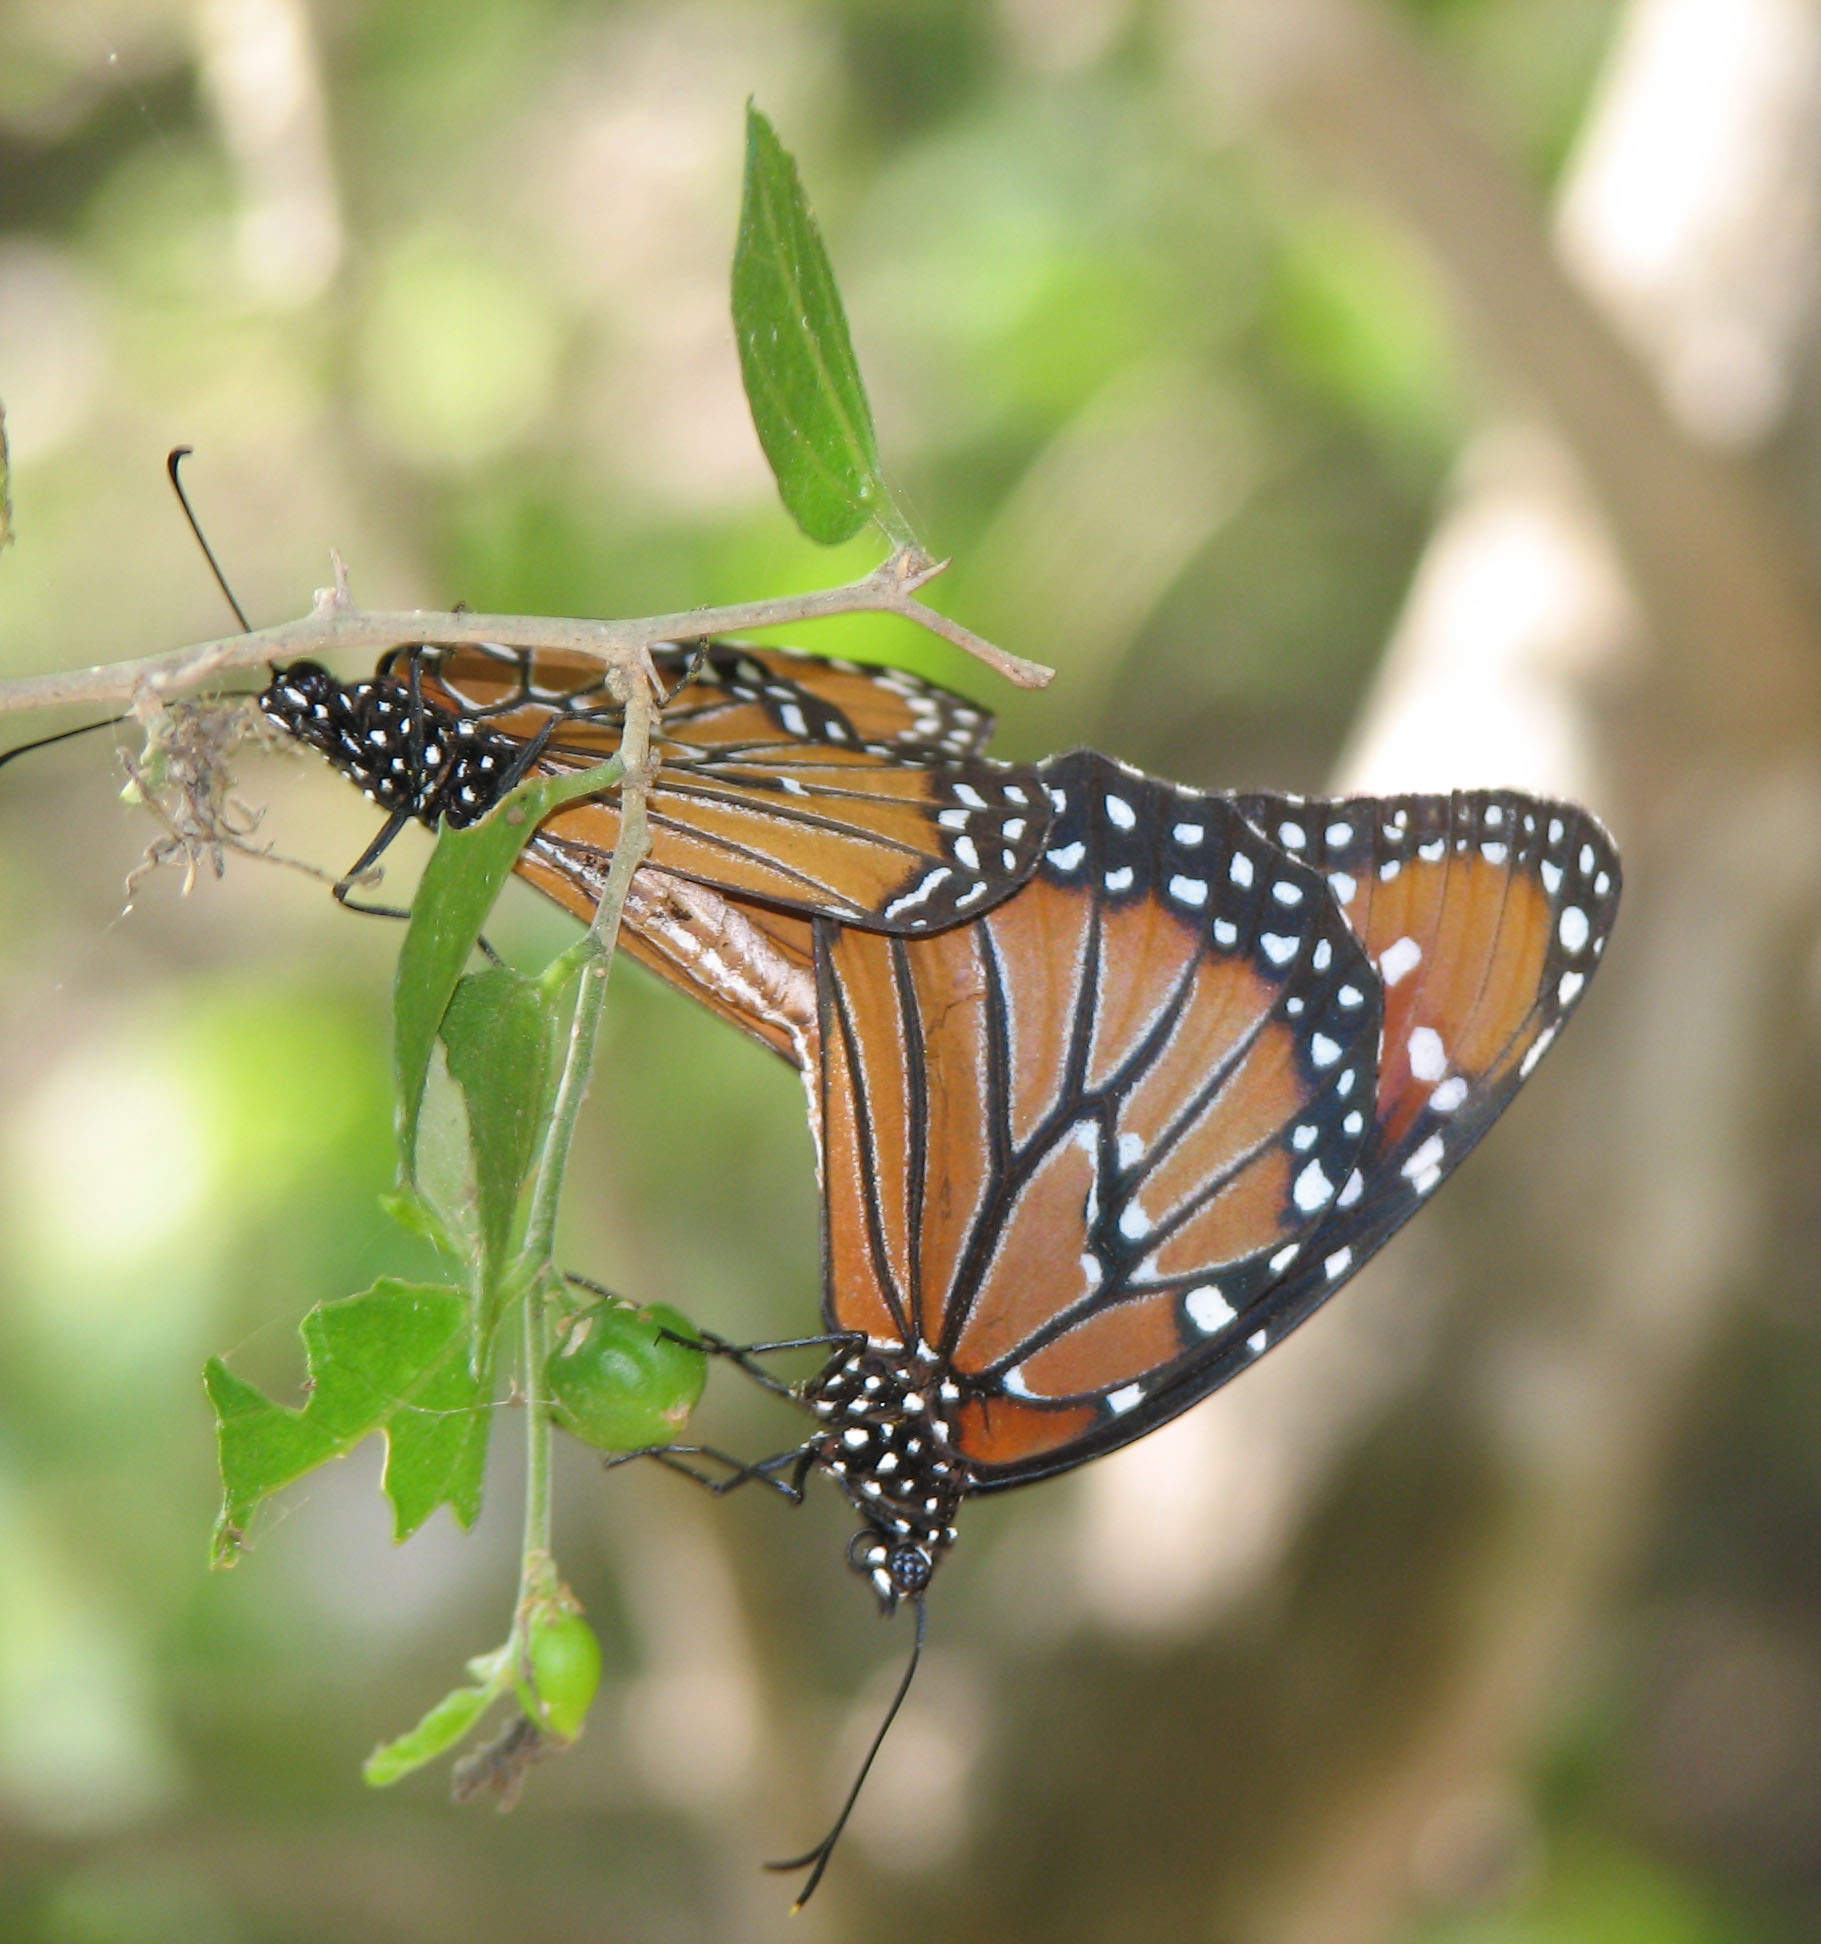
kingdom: Animalia
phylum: Arthropoda
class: Insecta
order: Lepidoptera
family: Nymphalidae
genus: Danaus
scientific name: Danaus gilippus
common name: Queen
